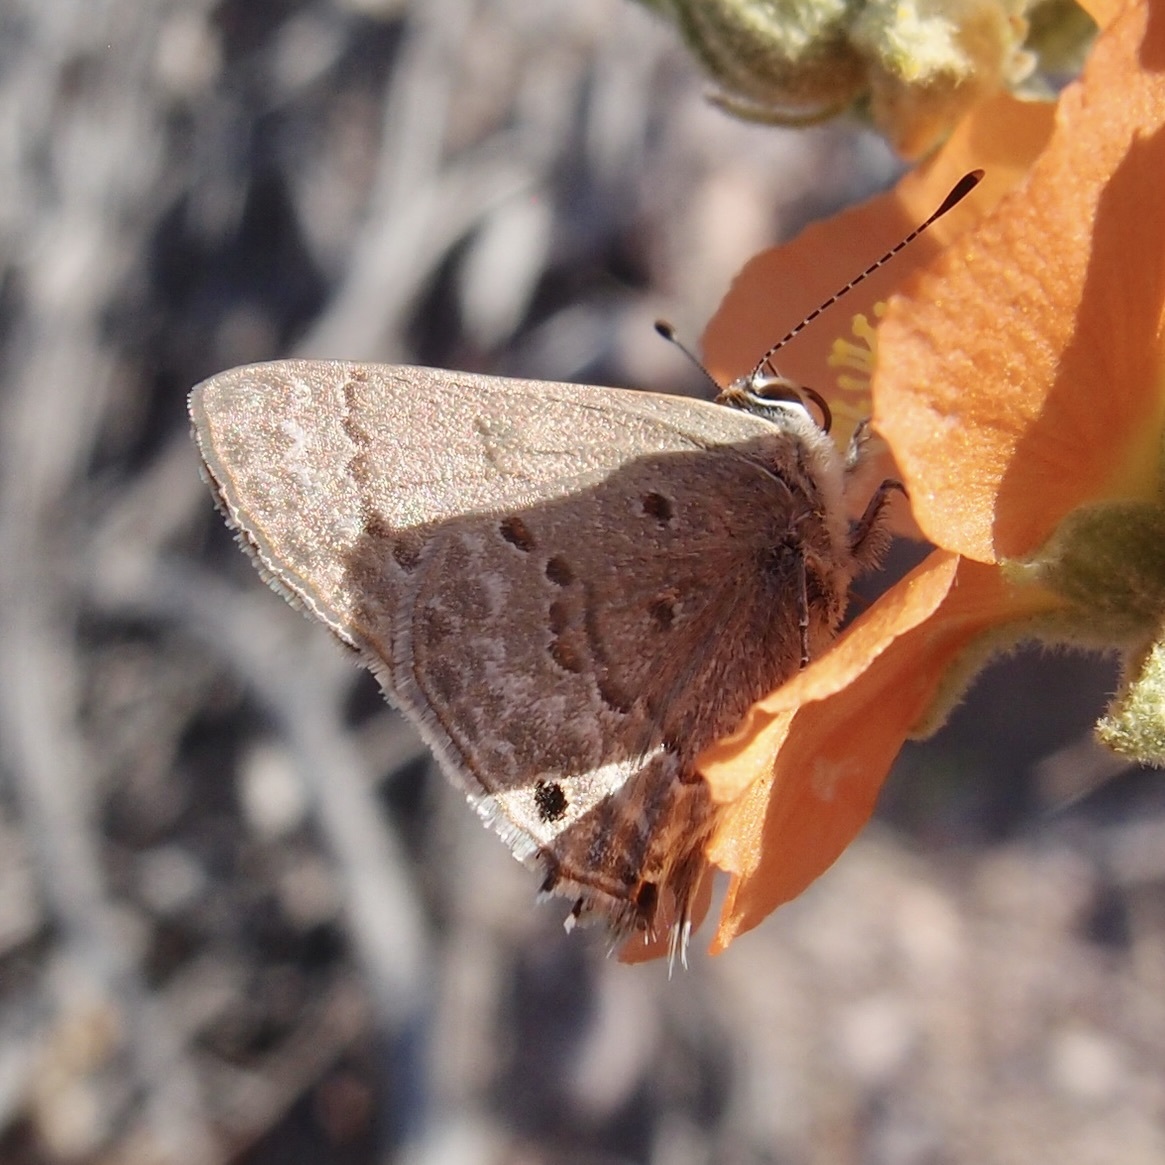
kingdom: Animalia
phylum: Arthropoda
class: Insecta
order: Lepidoptera
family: Lycaenidae
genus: Callicista
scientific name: Callicista columella
